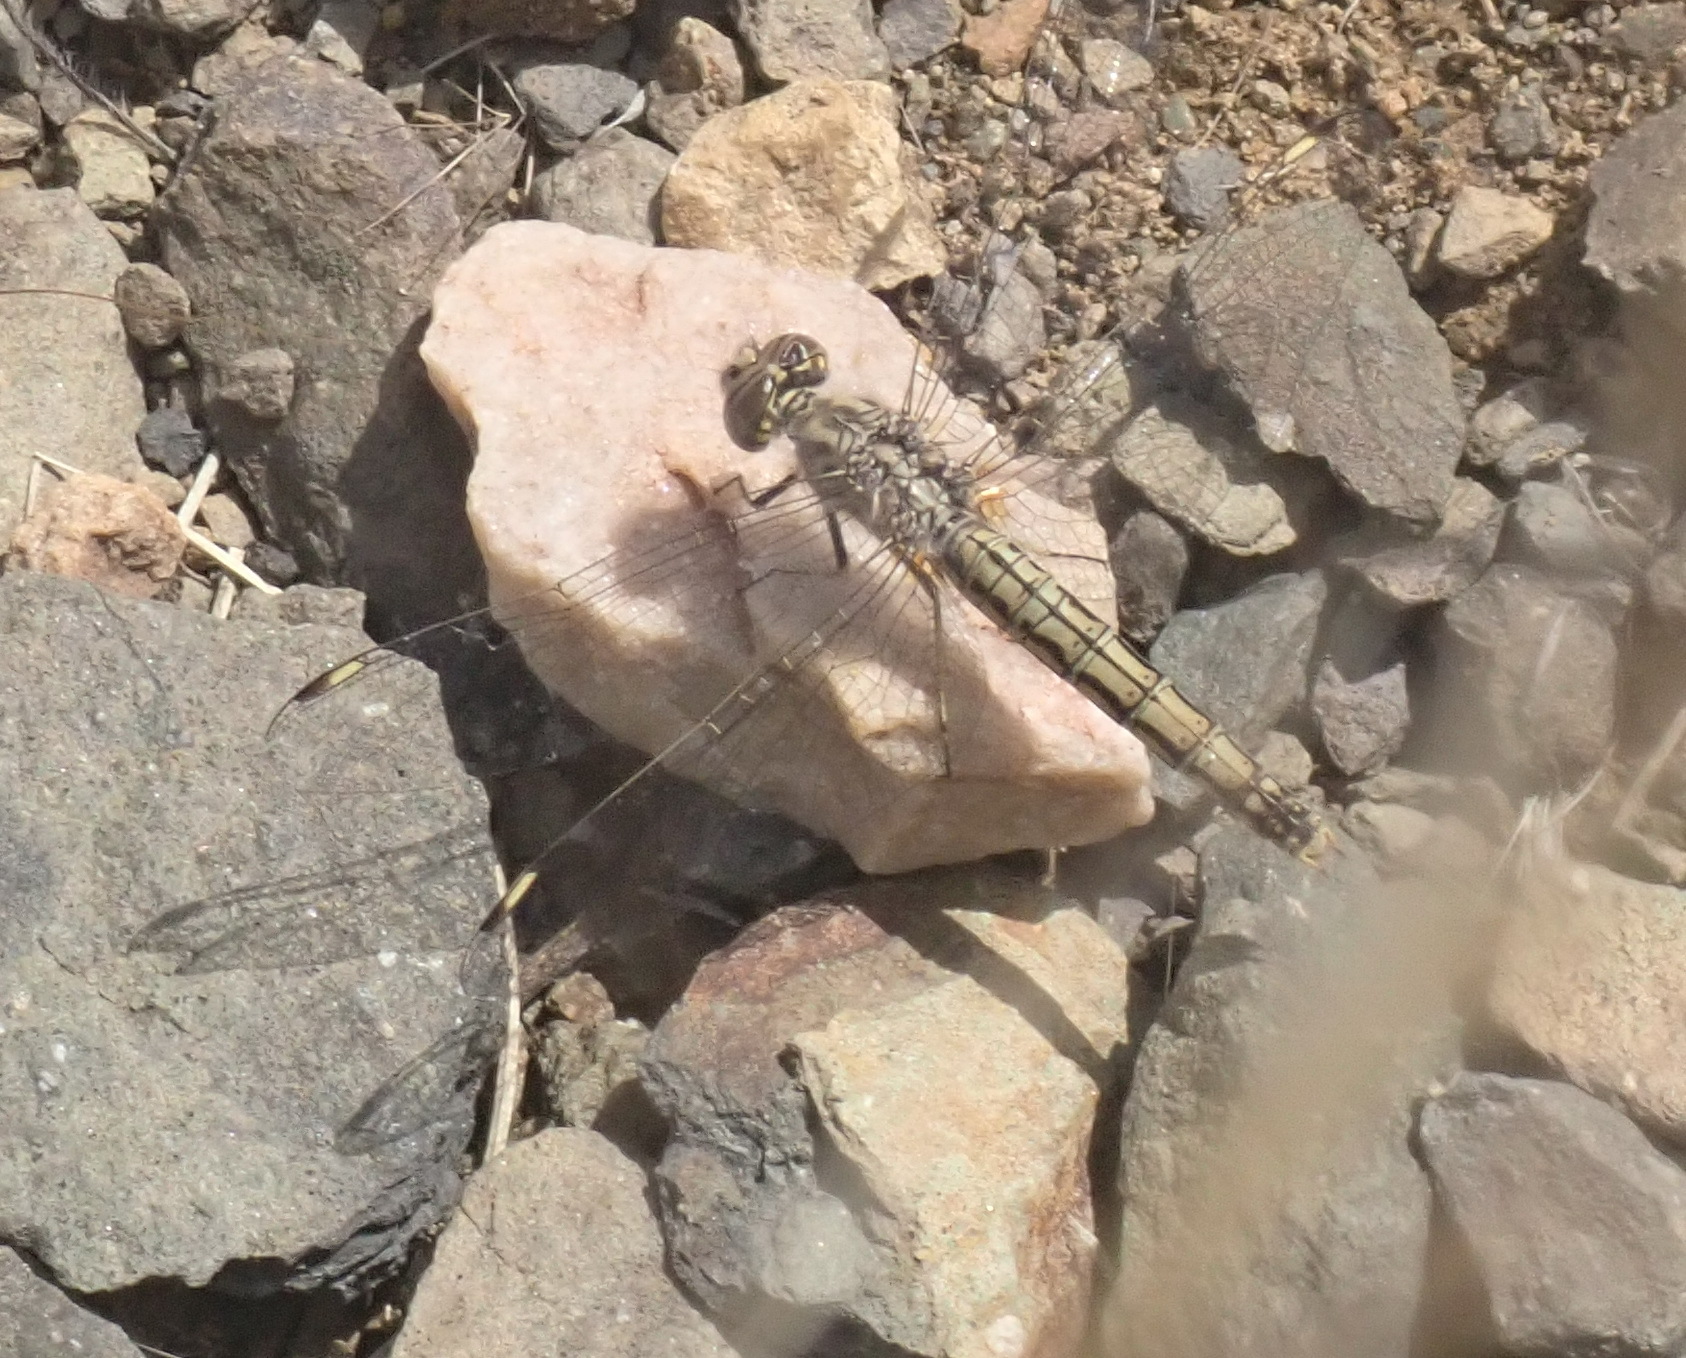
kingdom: Animalia
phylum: Arthropoda
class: Insecta
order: Odonata
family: Libellulidae
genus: Brachythemis
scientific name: Brachythemis leucosticta
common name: Banded groundling
